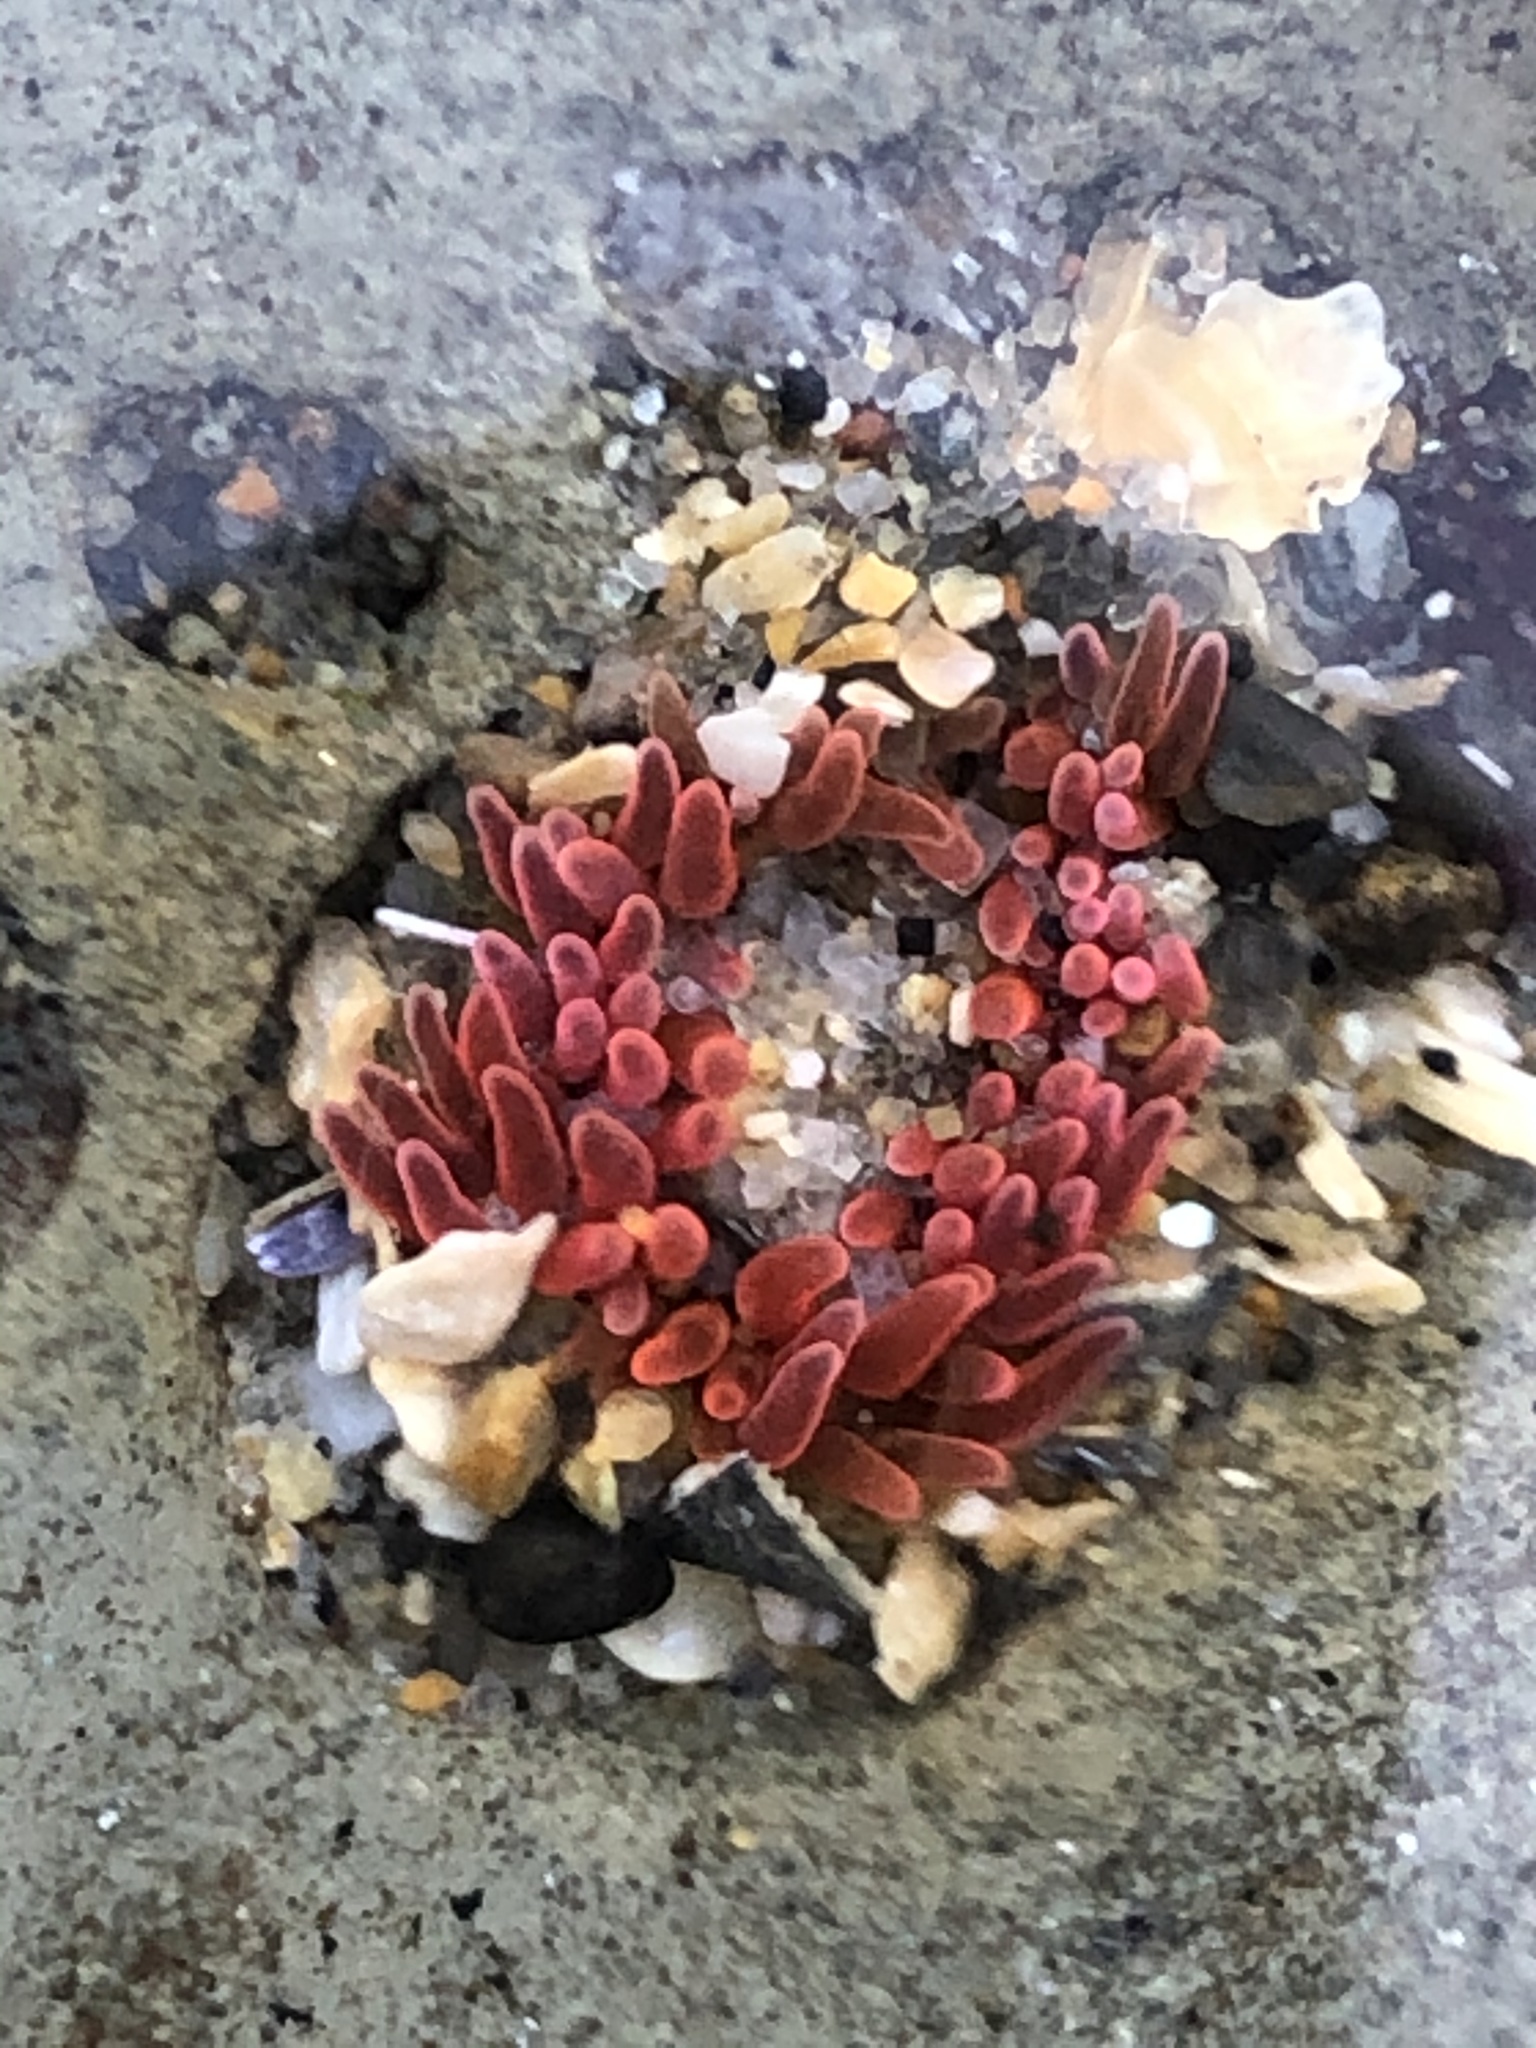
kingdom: Animalia
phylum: Cnidaria
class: Anthozoa
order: Actiniaria
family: Actiniidae
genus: Anthopleura
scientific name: Anthopleura artemisia
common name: Buried sea anemone
